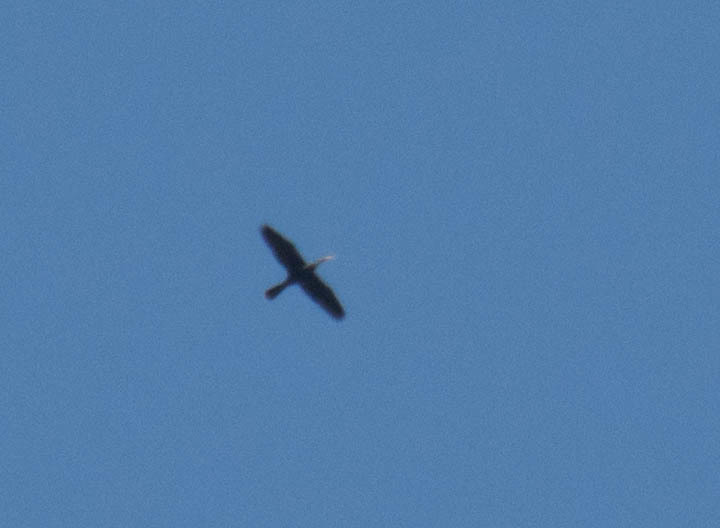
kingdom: Animalia
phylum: Chordata
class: Aves
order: Suliformes
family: Anhingidae
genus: Anhinga
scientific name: Anhinga anhinga
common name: Anhinga
